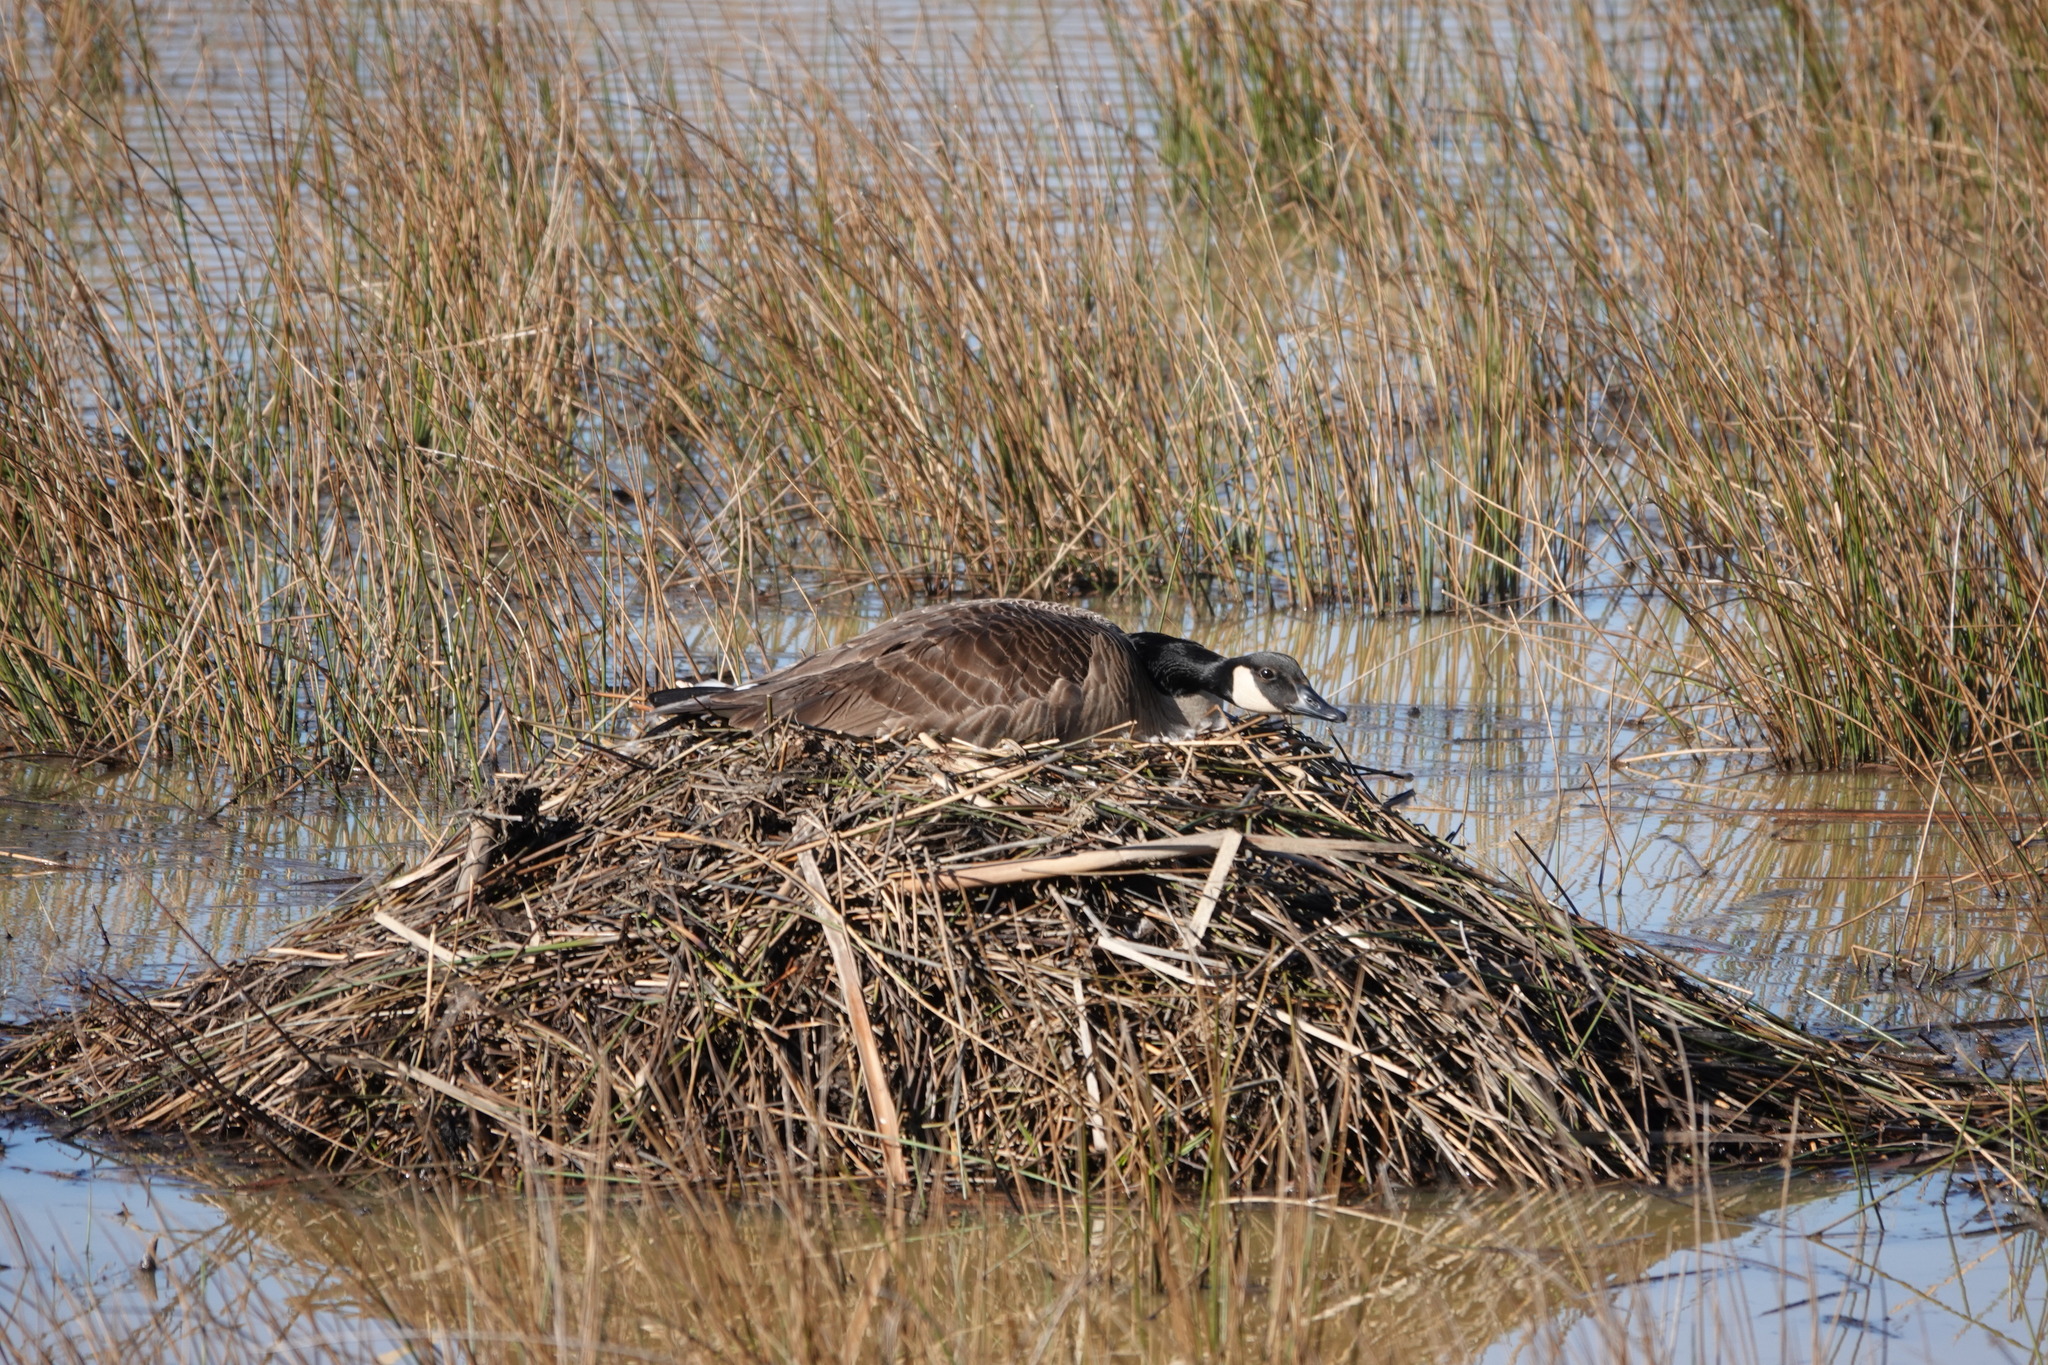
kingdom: Animalia
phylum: Chordata
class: Aves
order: Anseriformes
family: Anatidae
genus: Branta
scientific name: Branta canadensis
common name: Canada goose
